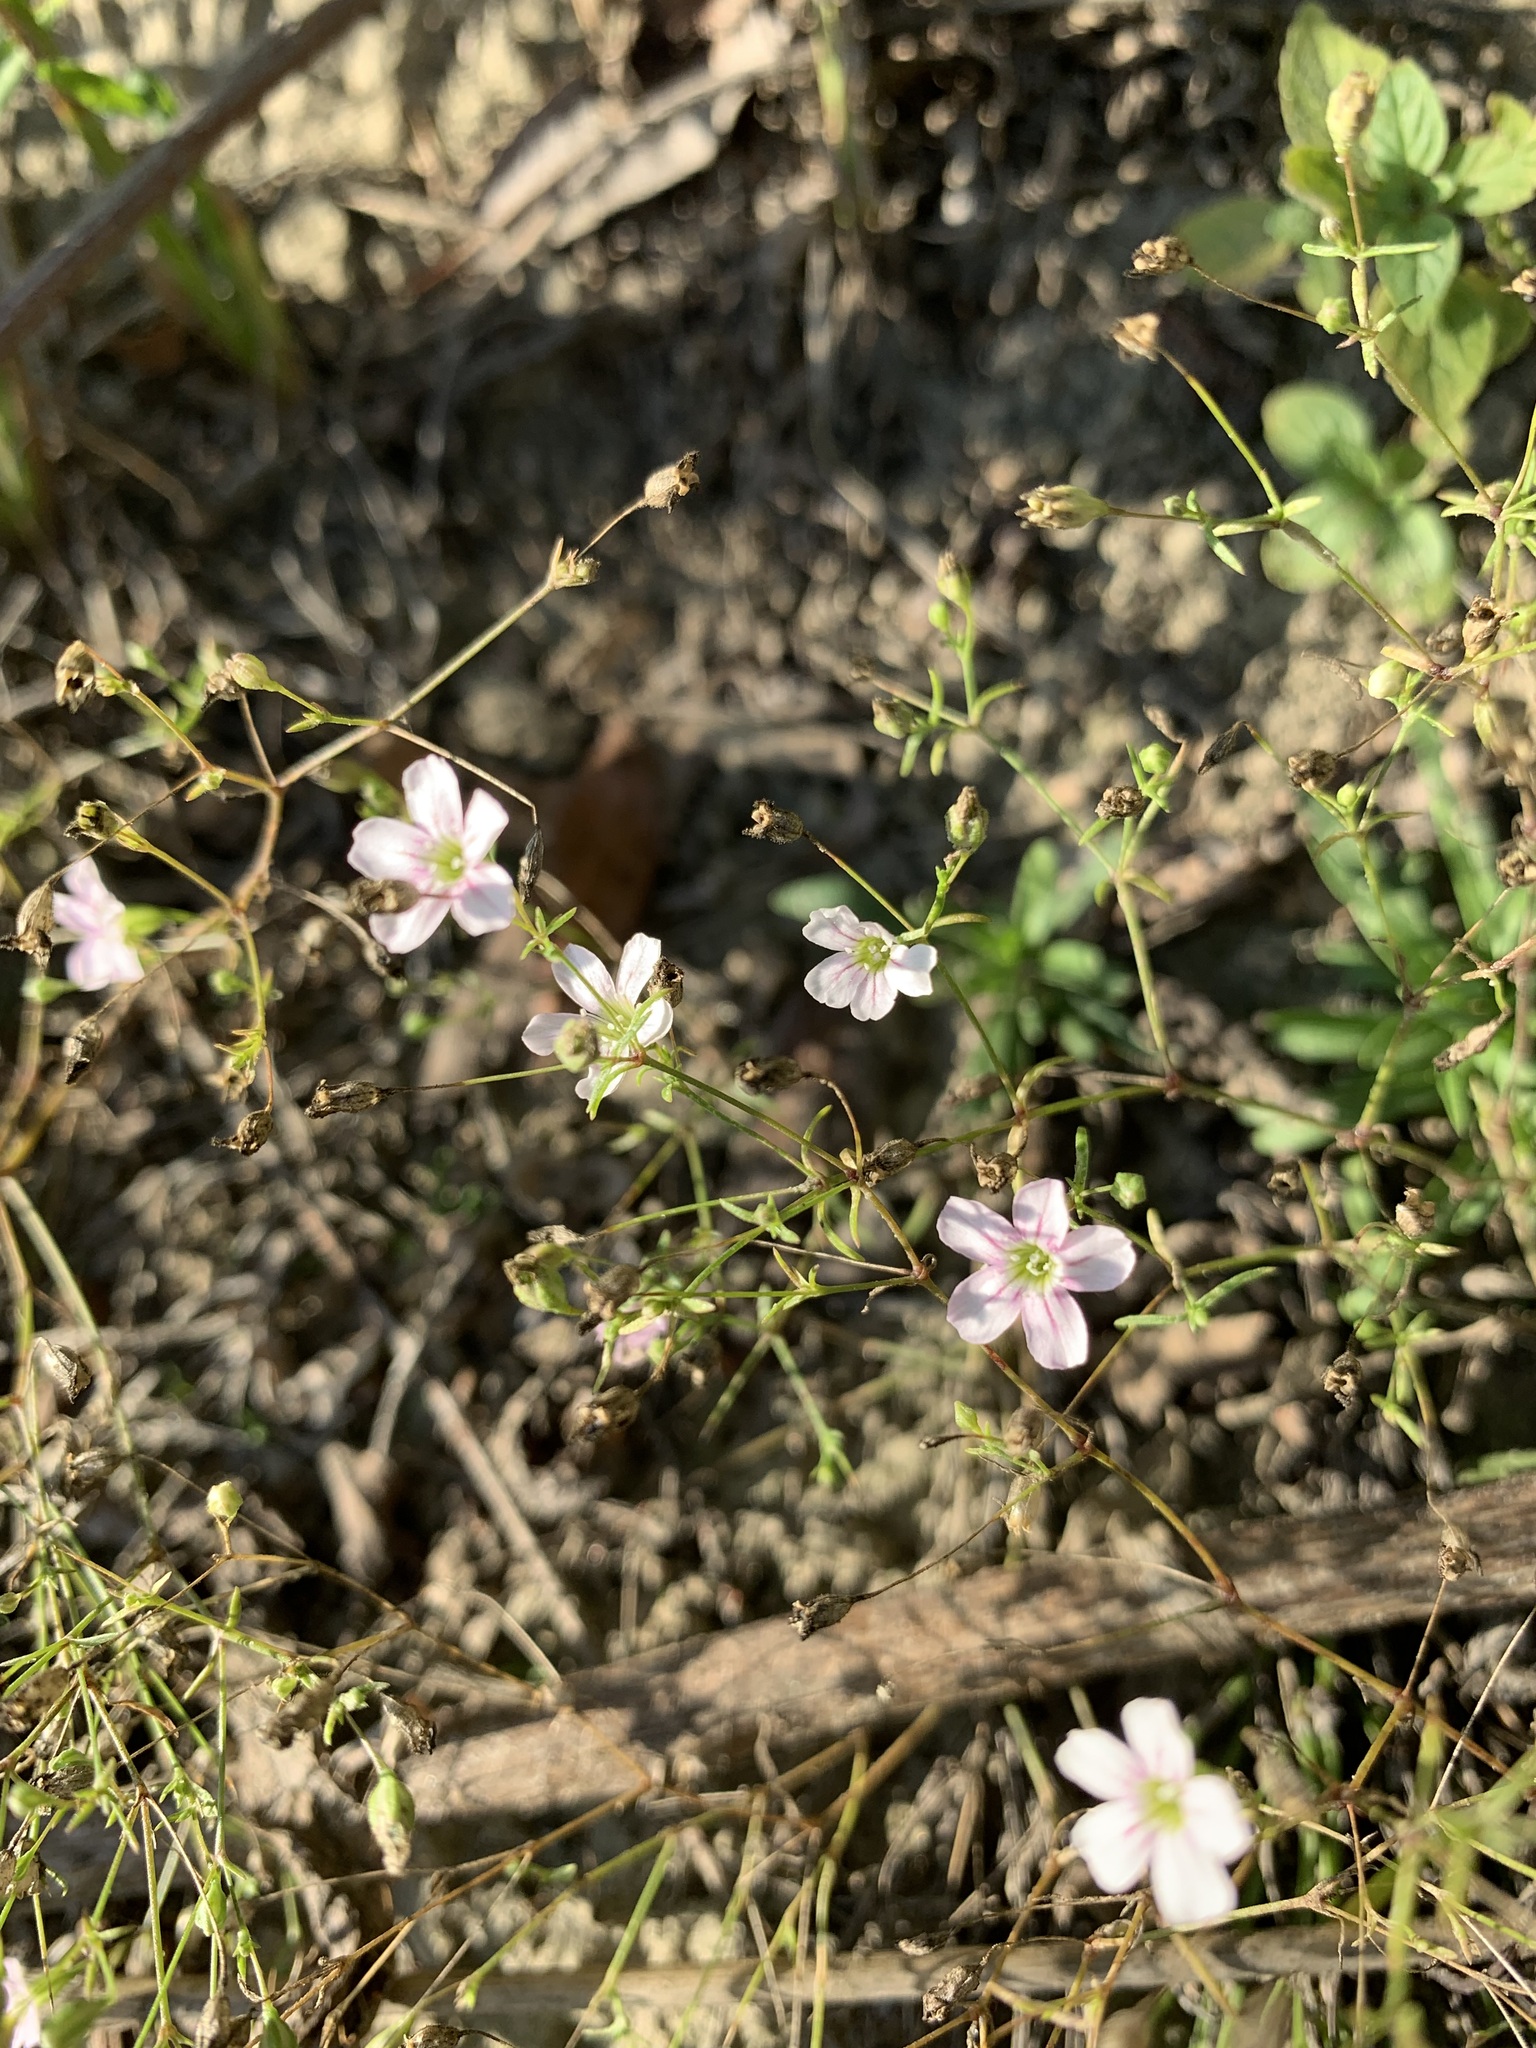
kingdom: Plantae
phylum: Tracheophyta
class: Magnoliopsida
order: Caryophyllales
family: Caryophyllaceae
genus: Psammophiliella
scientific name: Psammophiliella muralis
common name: Cushion baby's-breath
